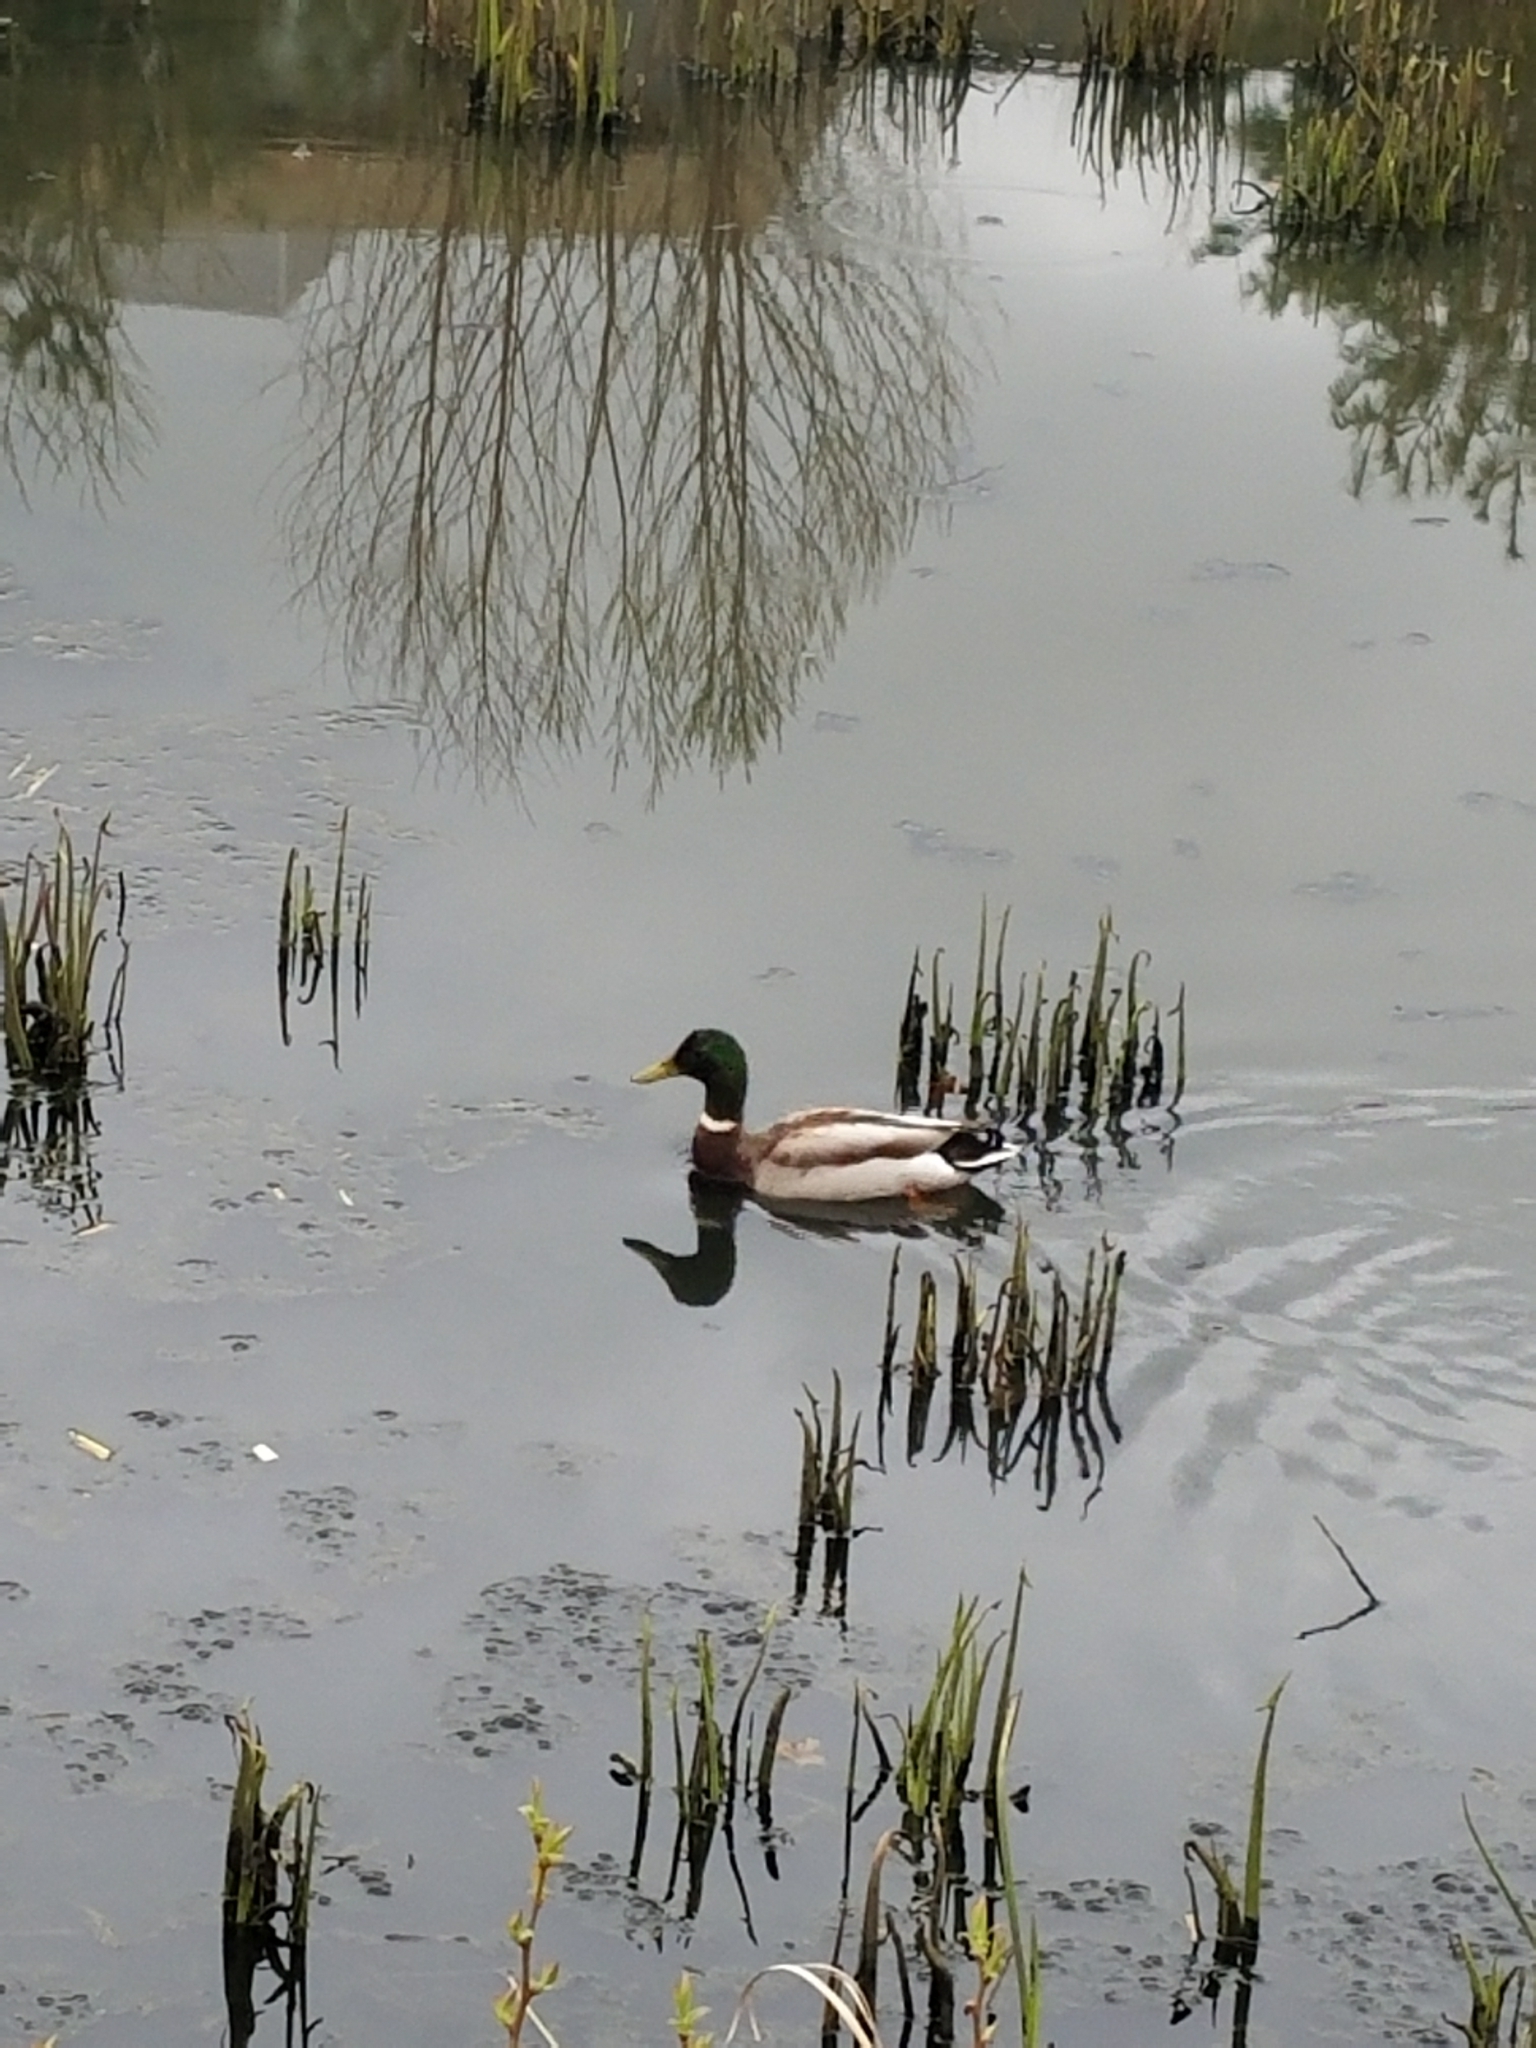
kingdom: Animalia
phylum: Chordata
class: Aves
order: Anseriformes
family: Anatidae
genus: Anas
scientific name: Anas platyrhynchos
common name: Mallard
